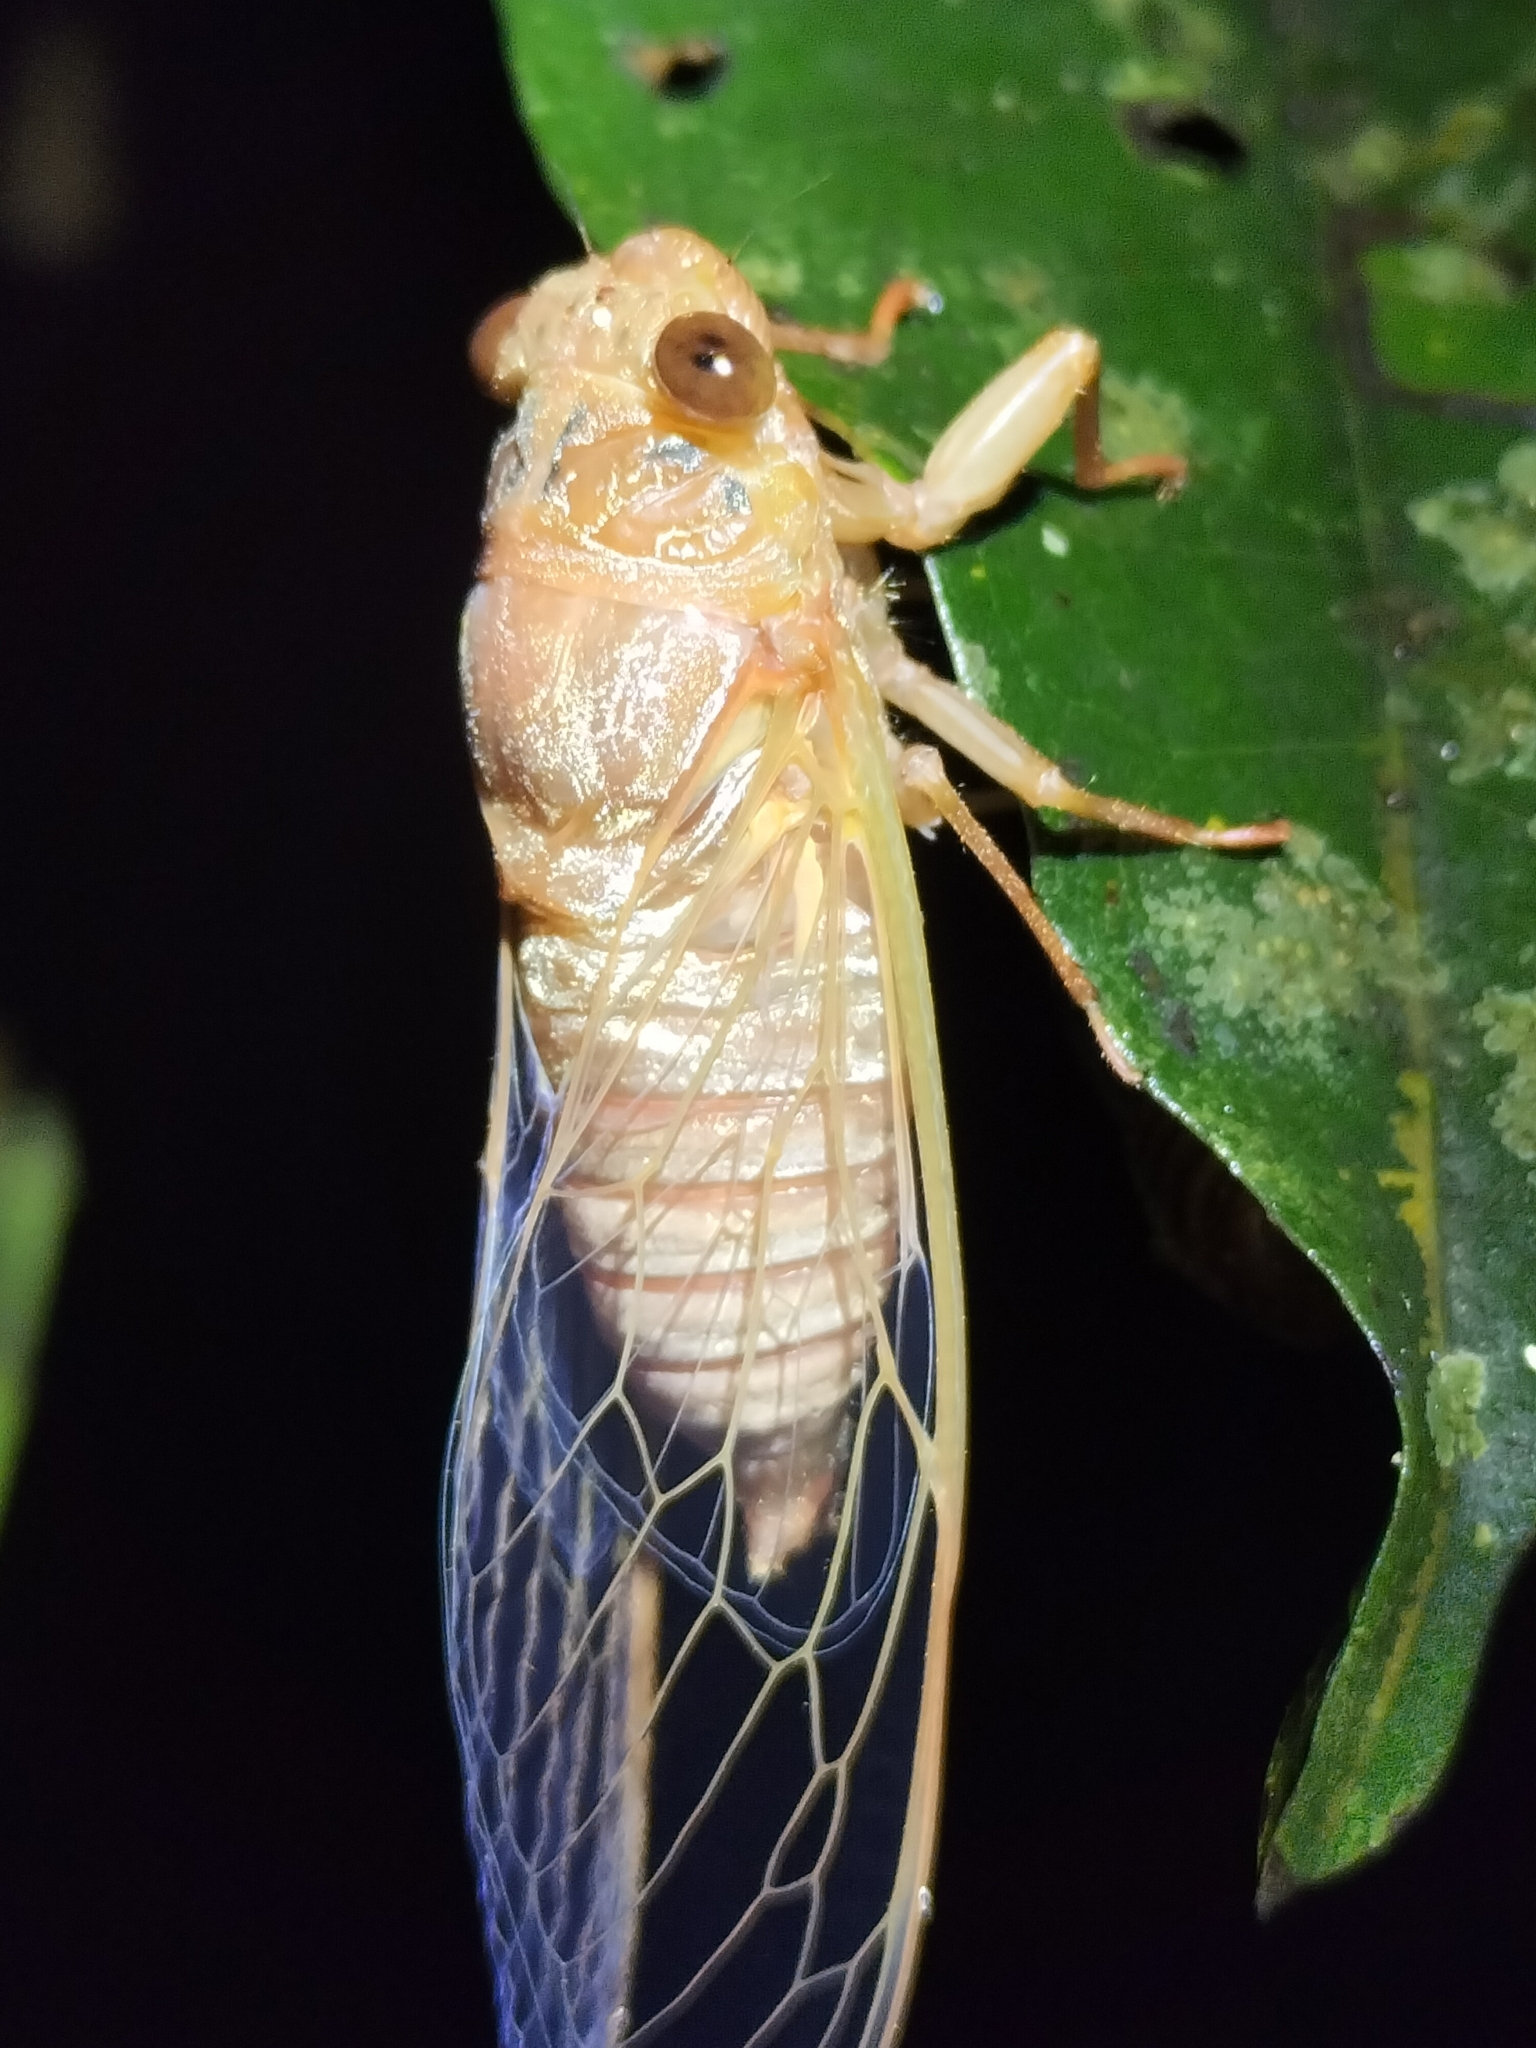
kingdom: Animalia
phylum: Arthropoda
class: Insecta
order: Hemiptera
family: Cicadidae
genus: Tamasa
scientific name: Tamasa doddi
